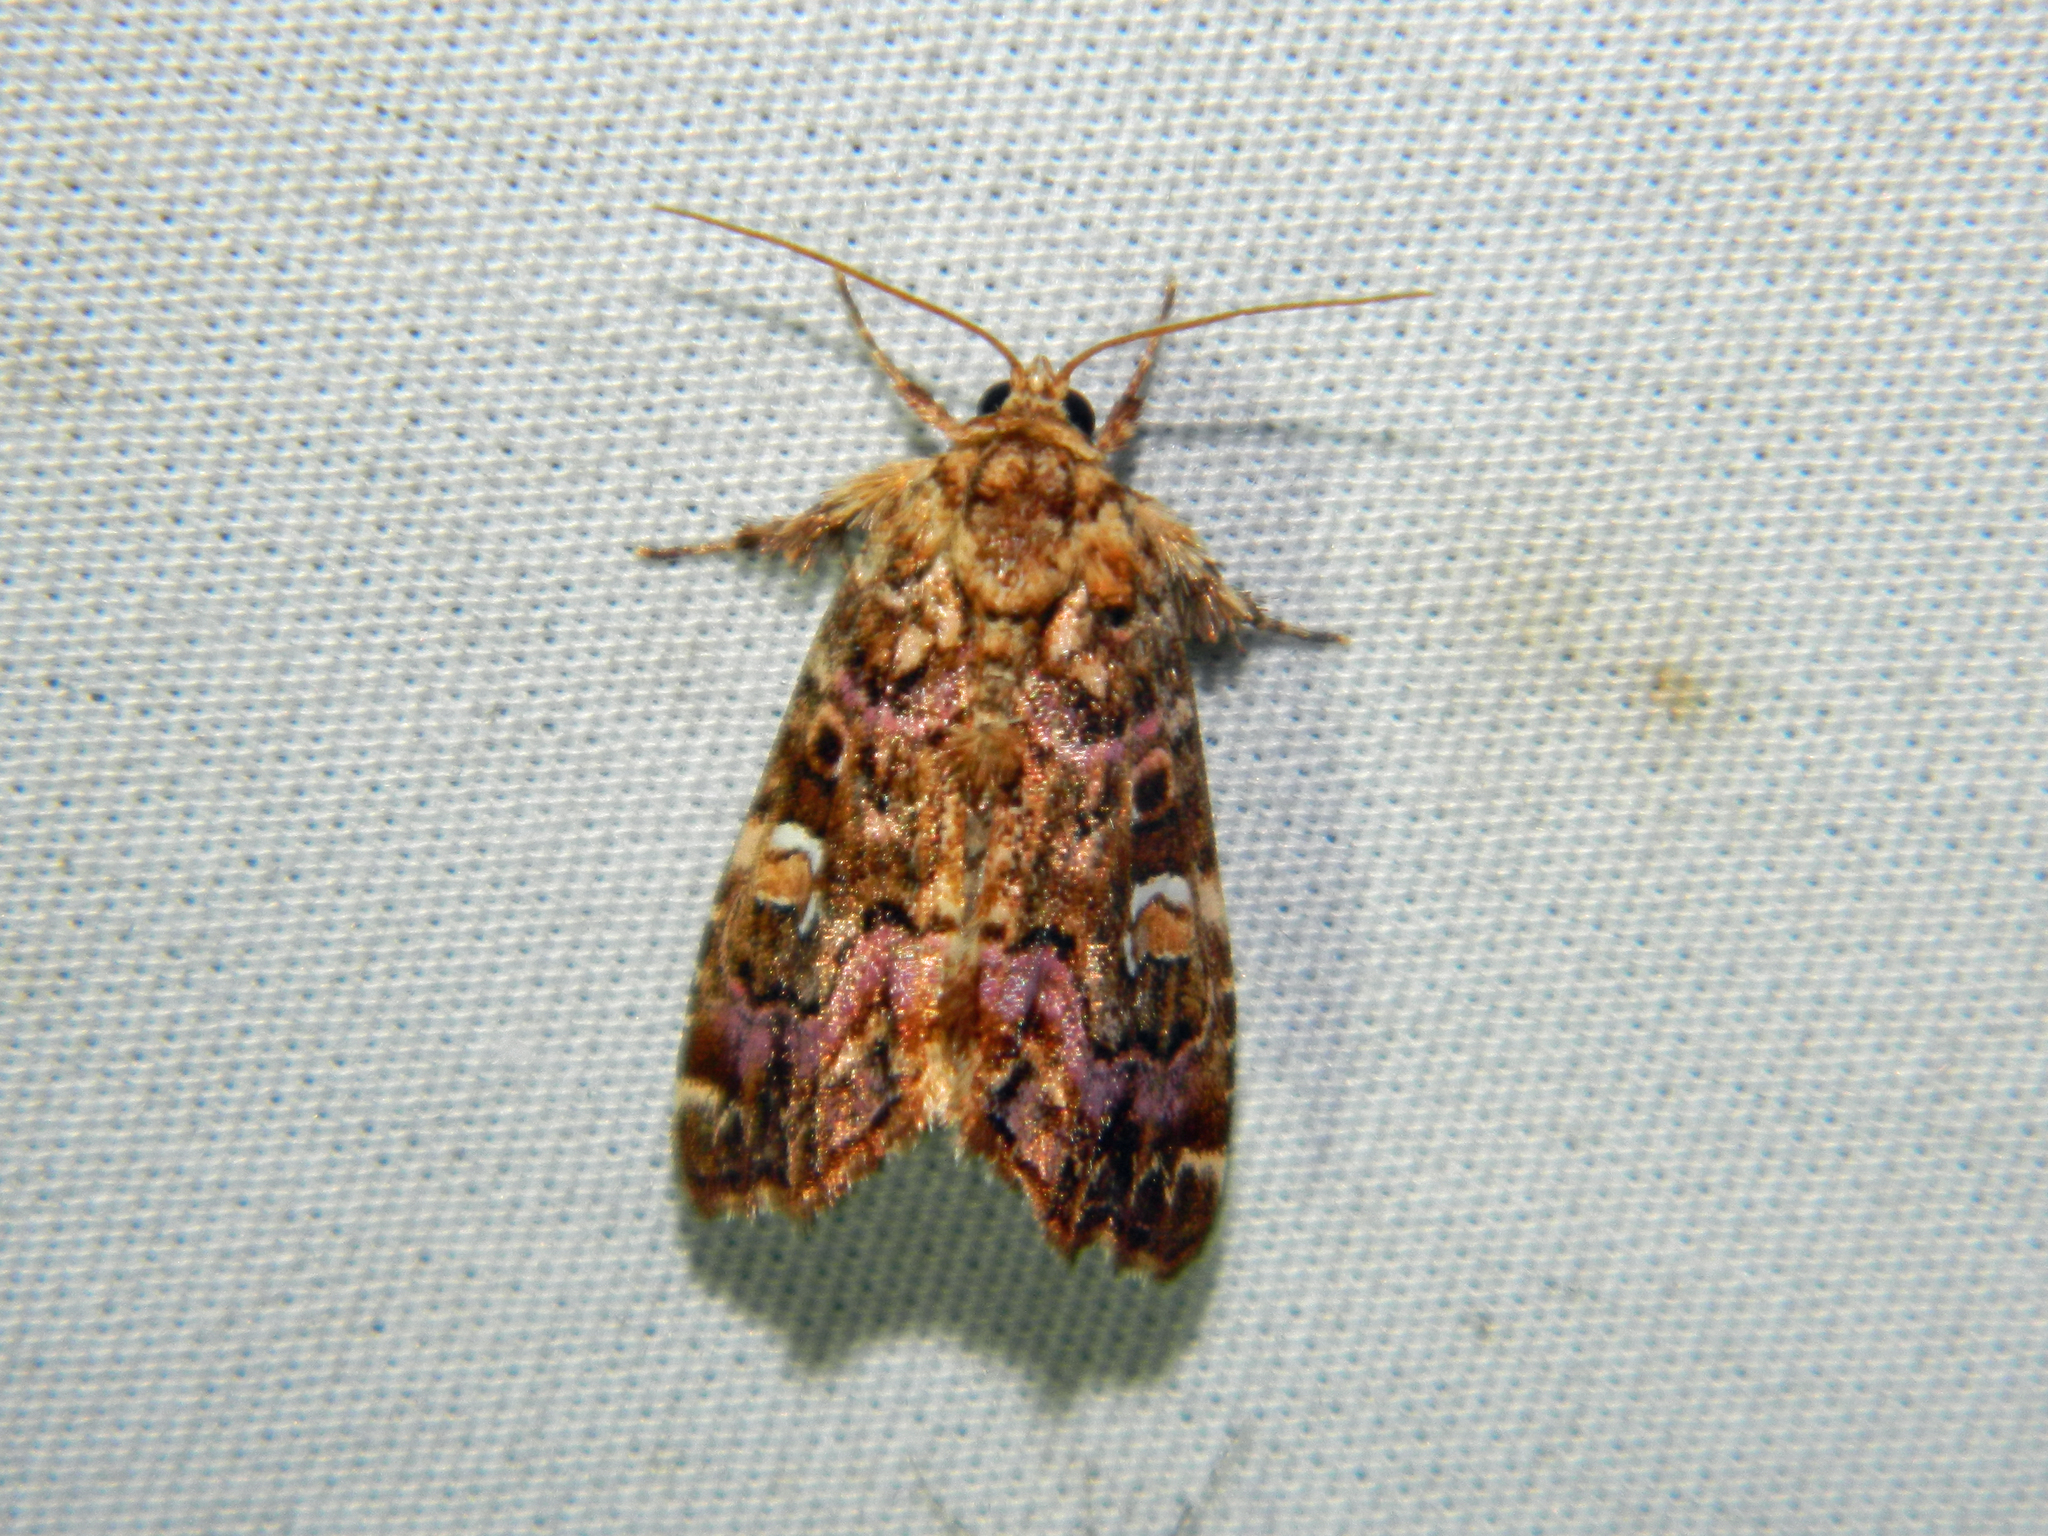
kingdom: Animalia
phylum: Arthropoda
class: Insecta
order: Lepidoptera
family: Noctuidae
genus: Callopistria
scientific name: Callopistria mollissima
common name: Pink-shaded fern moth
